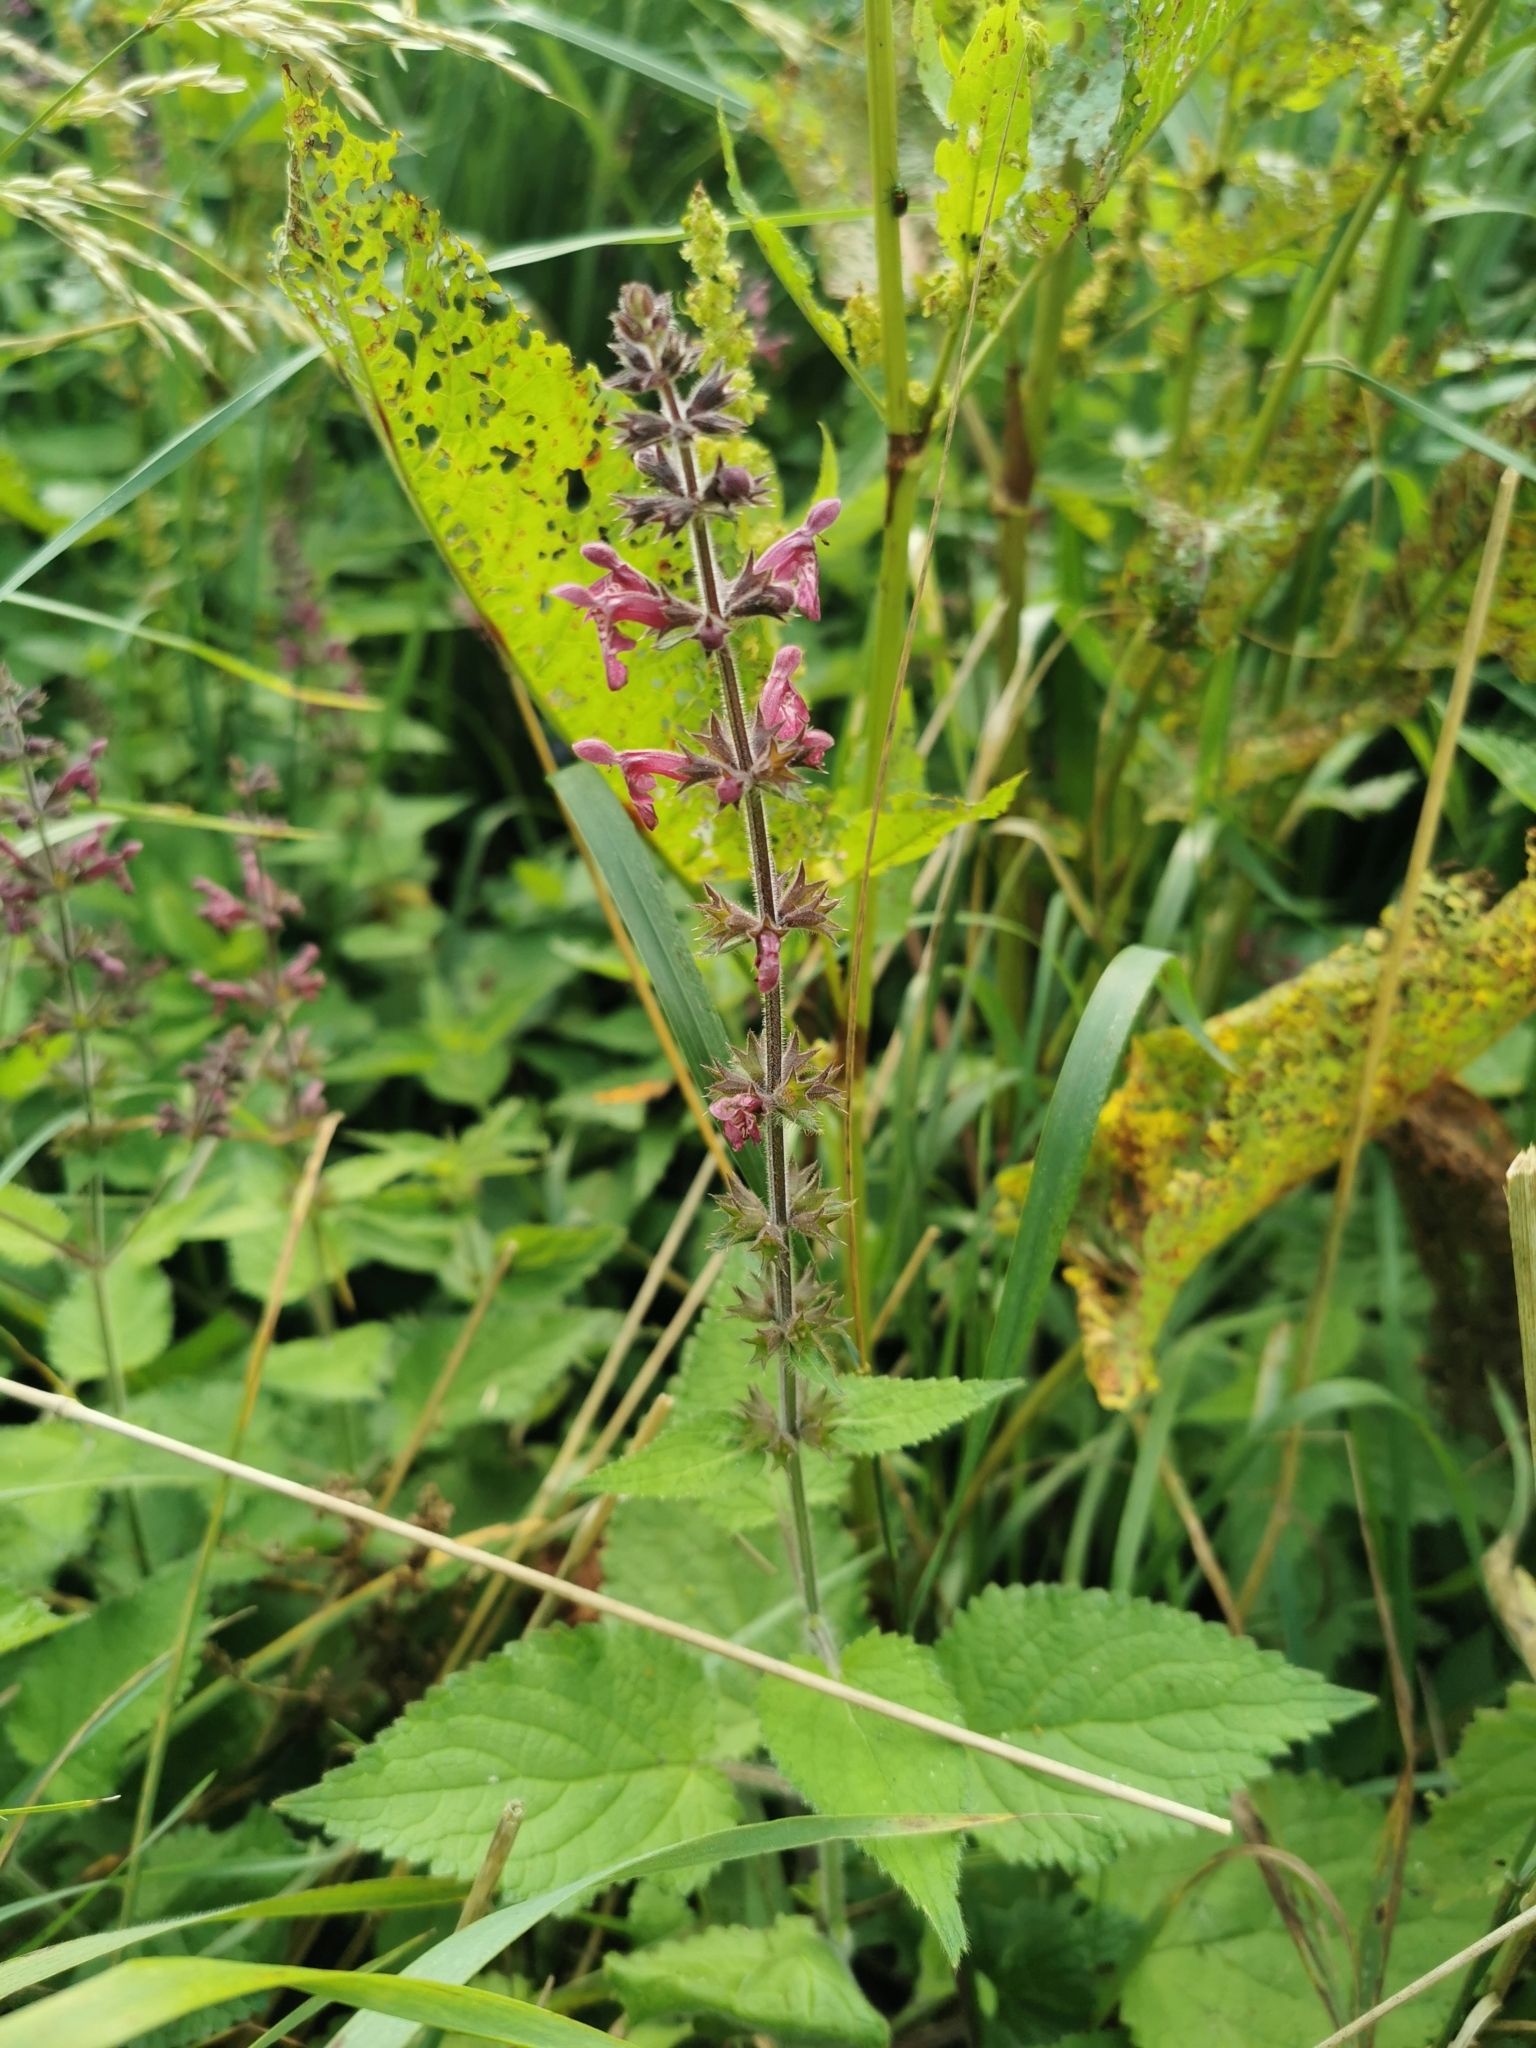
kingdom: Plantae
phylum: Tracheophyta
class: Magnoliopsida
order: Lamiales
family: Lamiaceae
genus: Stachys
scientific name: Stachys sylvatica
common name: Hedge woundwort
